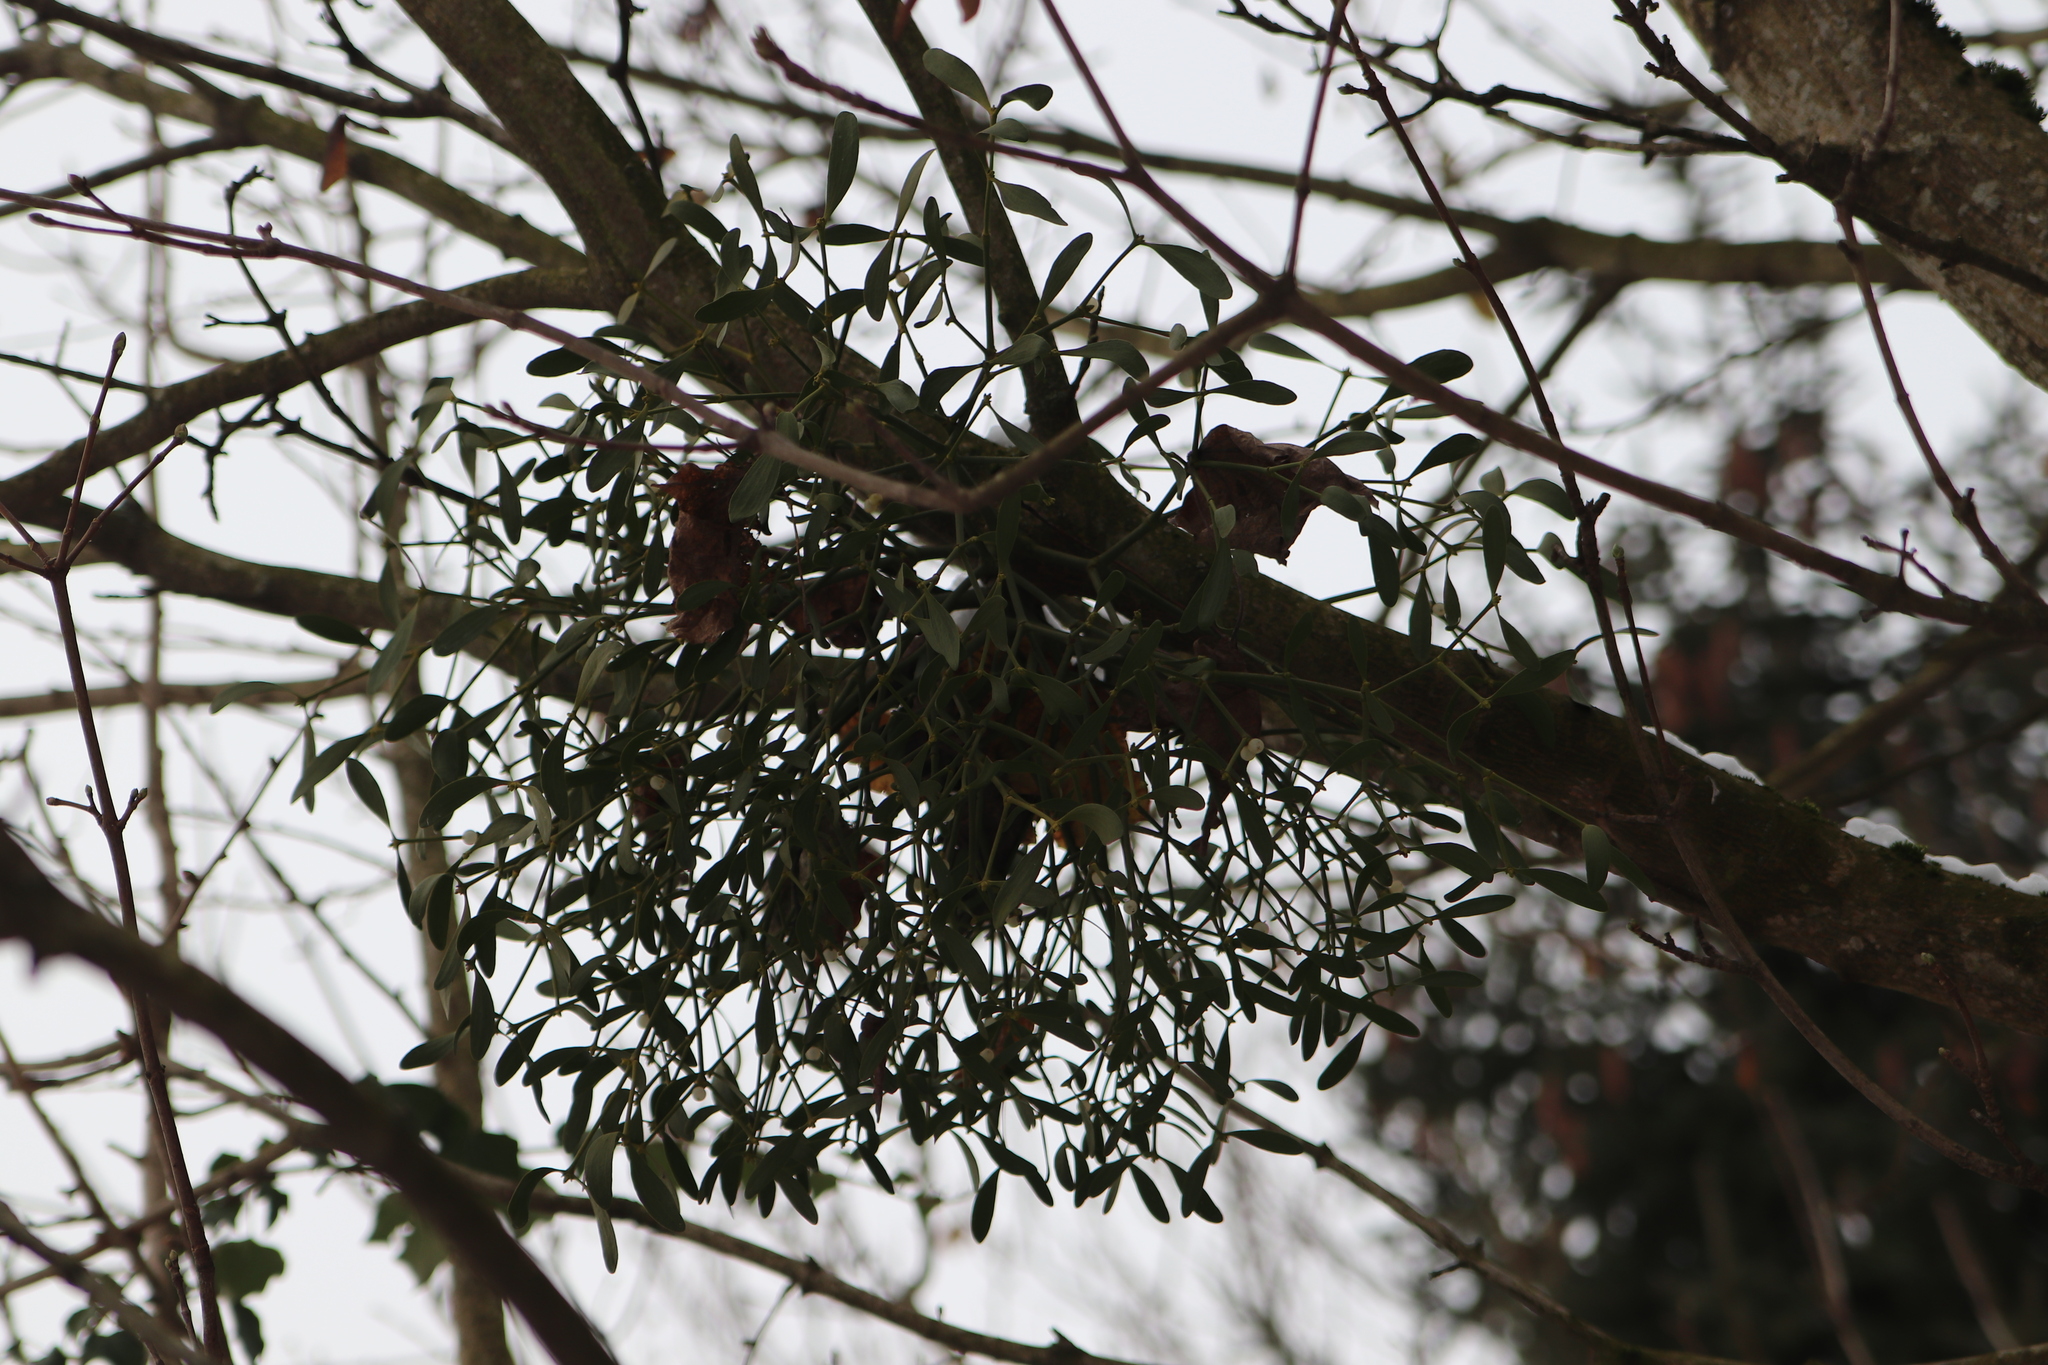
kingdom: Plantae
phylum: Tracheophyta
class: Magnoliopsida
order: Santalales
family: Viscaceae
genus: Viscum
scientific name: Viscum album
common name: Mistletoe
